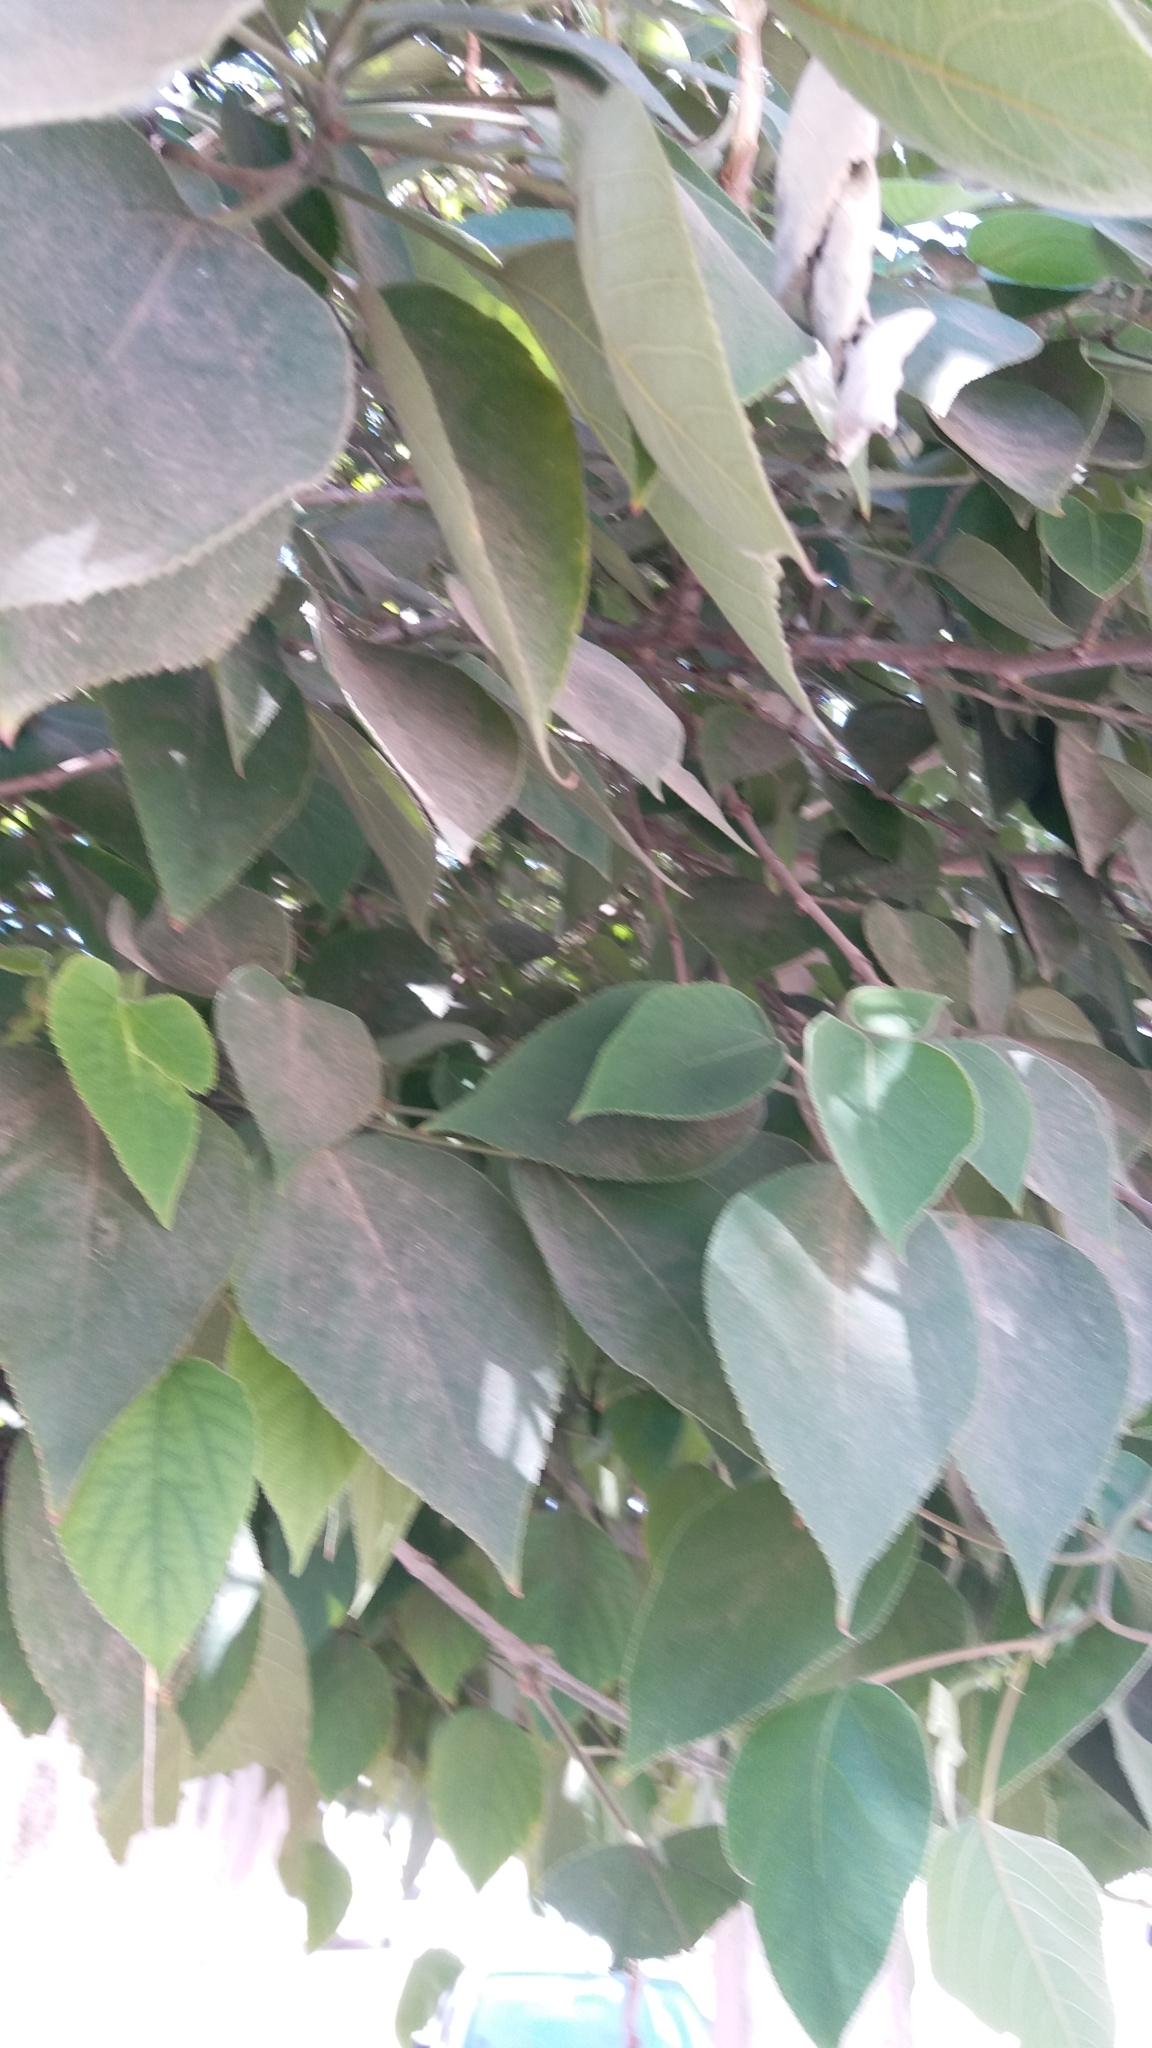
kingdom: Plantae
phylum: Tracheophyta
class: Magnoliopsida
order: Rosales
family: Moraceae
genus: Broussonetia
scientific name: Broussonetia papyrifera
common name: Paper mulberry
